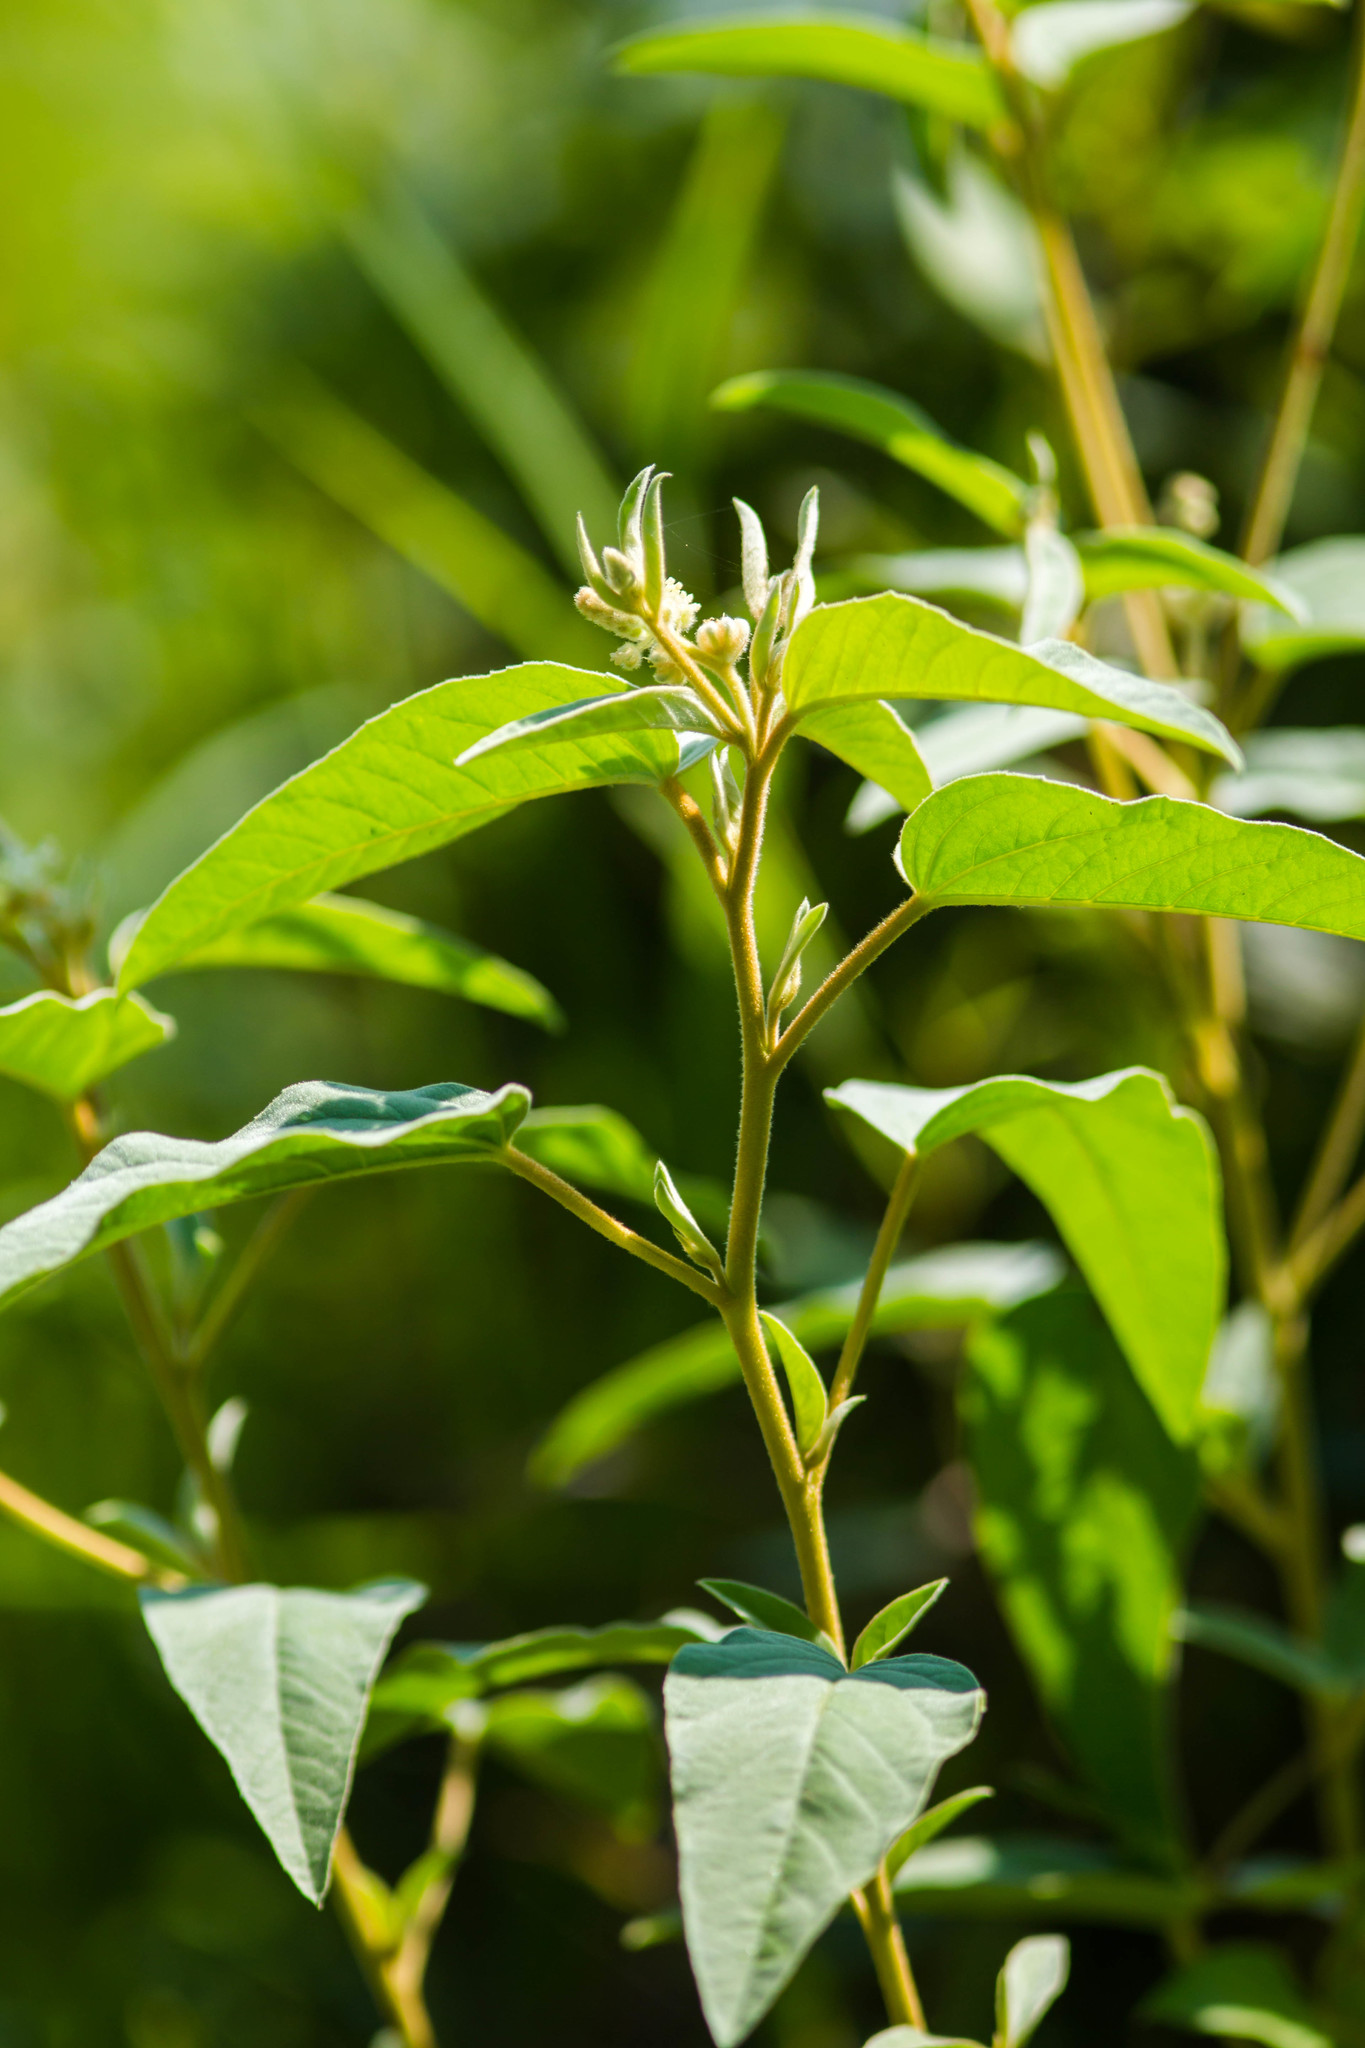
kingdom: Plantae
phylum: Tracheophyta
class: Magnoliopsida
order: Malpighiales
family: Euphorbiaceae
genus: Croton
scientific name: Croton lindheimeri
